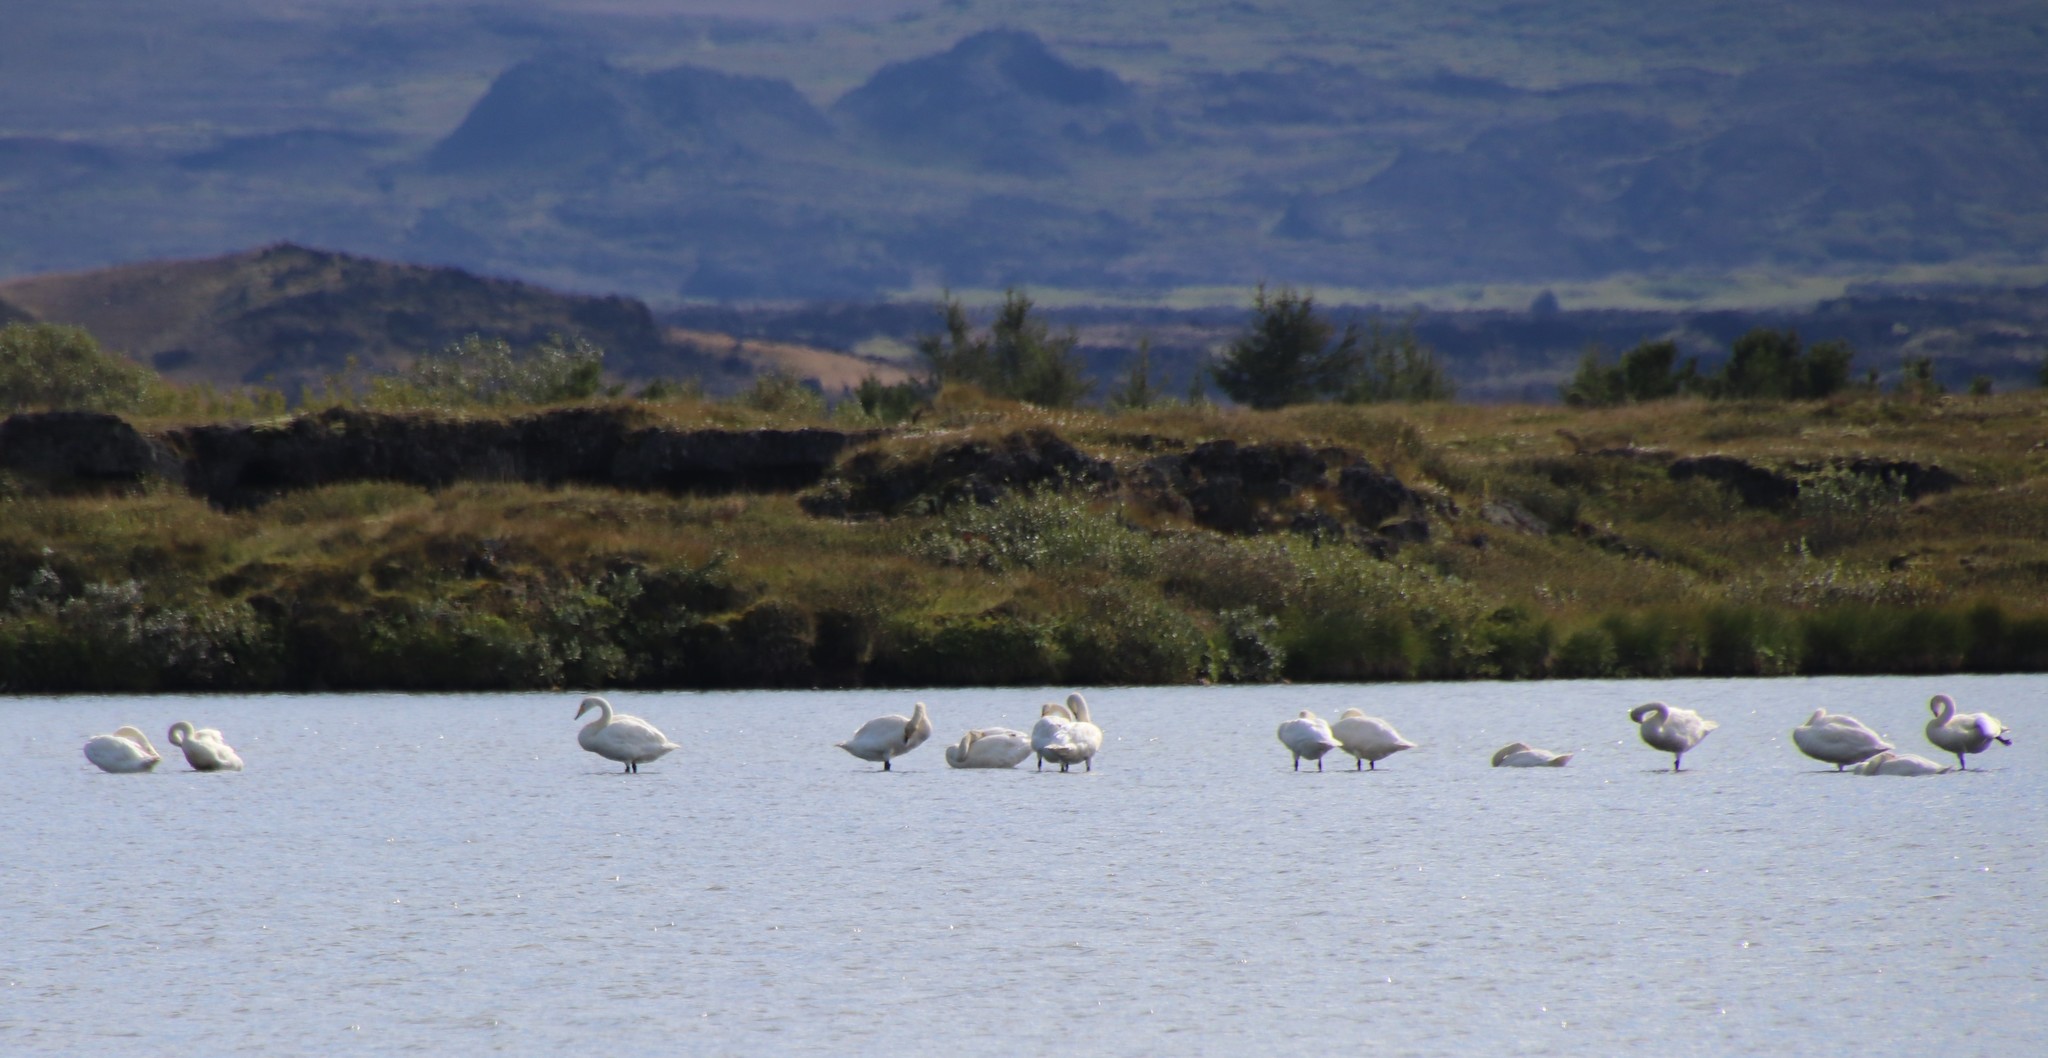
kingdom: Animalia
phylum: Chordata
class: Aves
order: Anseriformes
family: Anatidae
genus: Cygnus
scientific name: Cygnus cygnus
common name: Whooper swan
